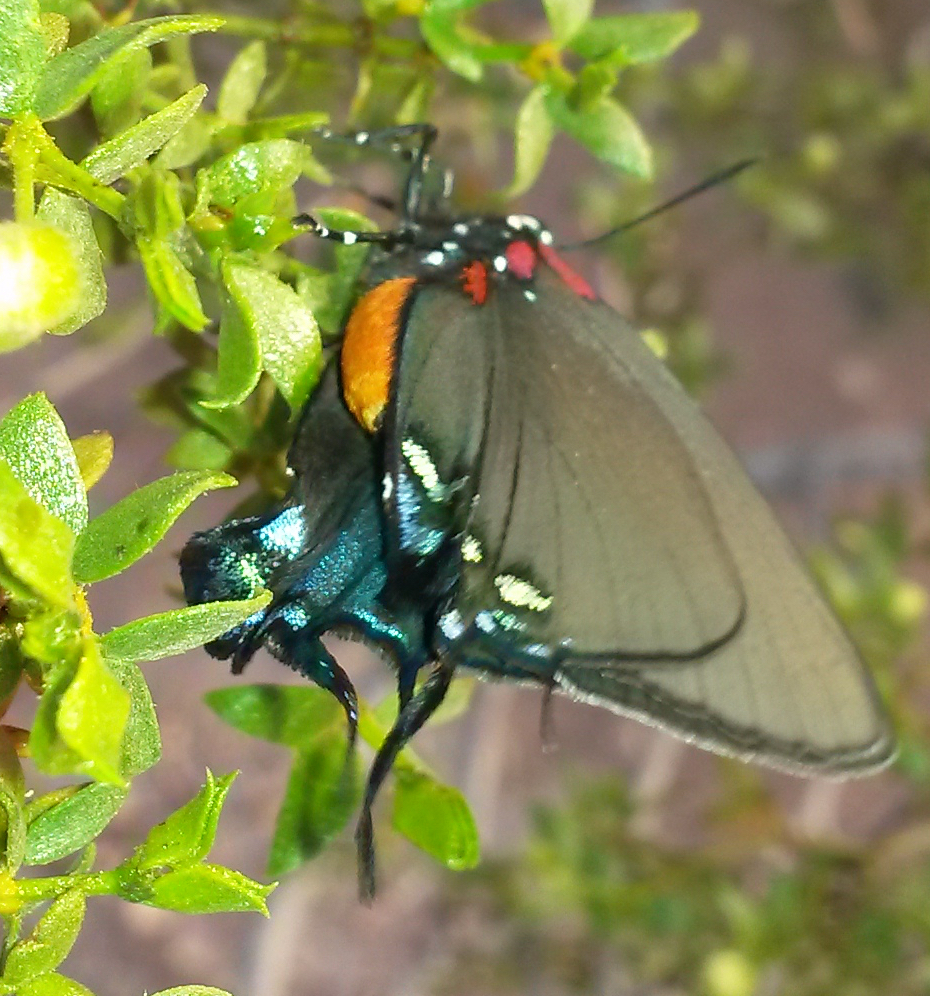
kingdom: Animalia
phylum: Arthropoda
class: Insecta
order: Lepidoptera
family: Lycaenidae
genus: Atlides
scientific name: Atlides halesus
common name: Great purple hairstreak
